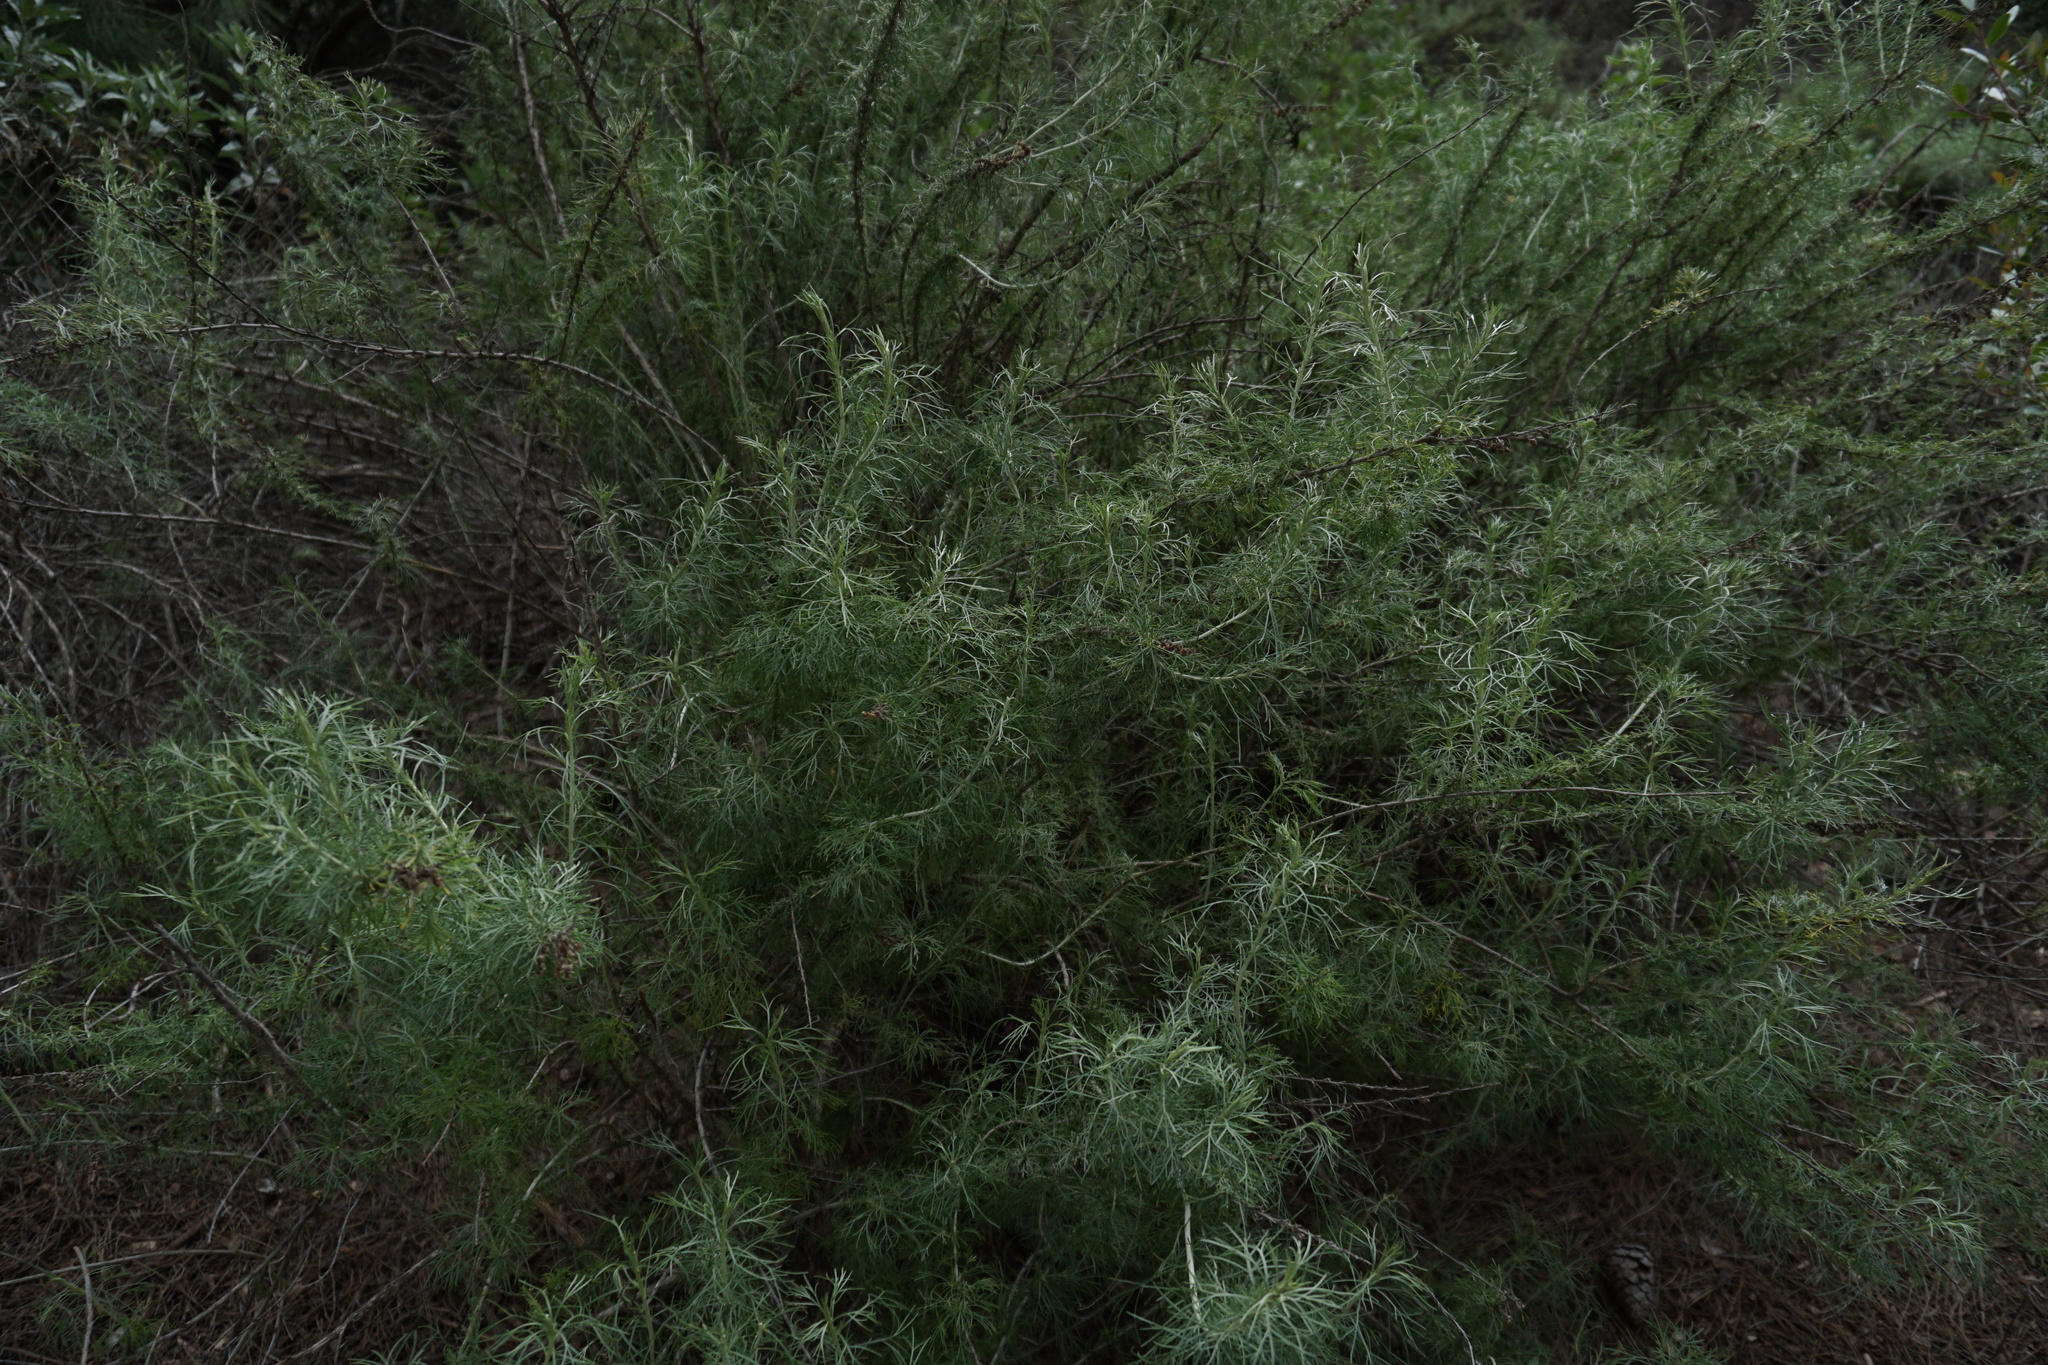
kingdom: Plantae
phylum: Tracheophyta
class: Magnoliopsida
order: Asterales
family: Asteraceae
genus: Artemisia
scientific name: Artemisia californica
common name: California sagebrush
